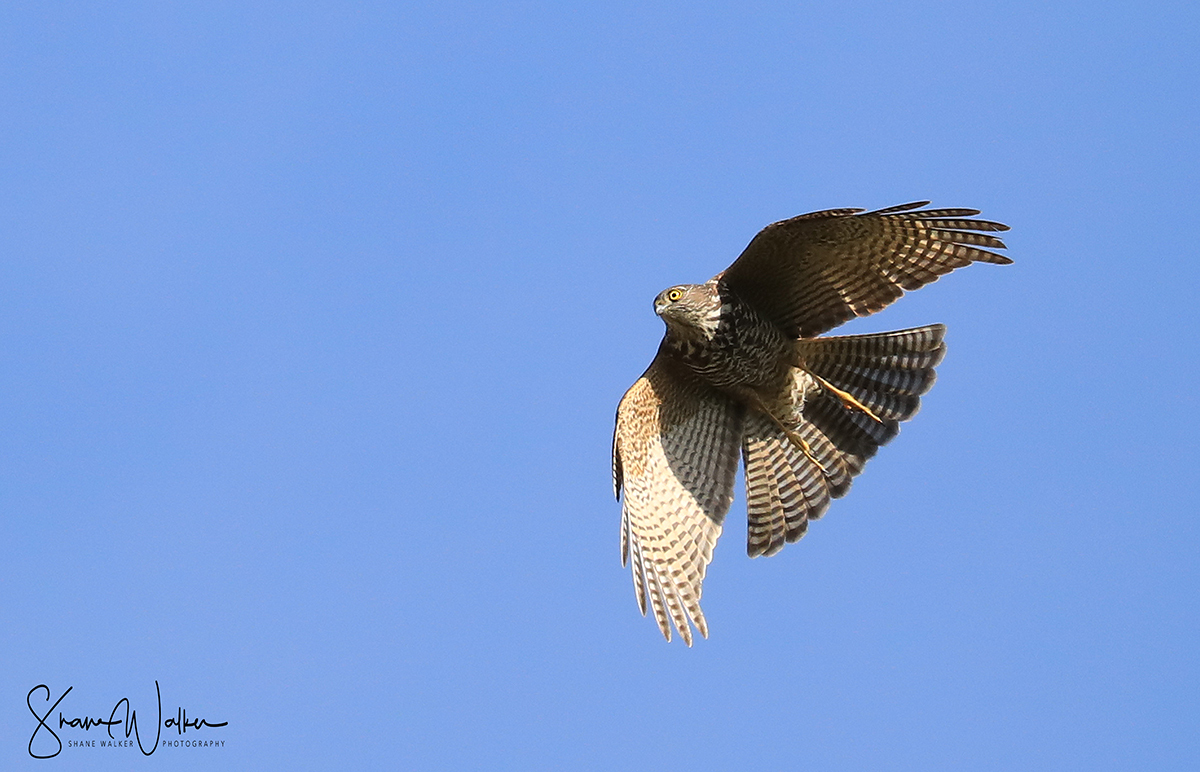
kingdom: Animalia
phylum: Chordata
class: Aves
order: Accipitriformes
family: Accipitridae
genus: Accipiter
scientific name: Accipiter cirrocephalus
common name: Collared sparrowhawk
